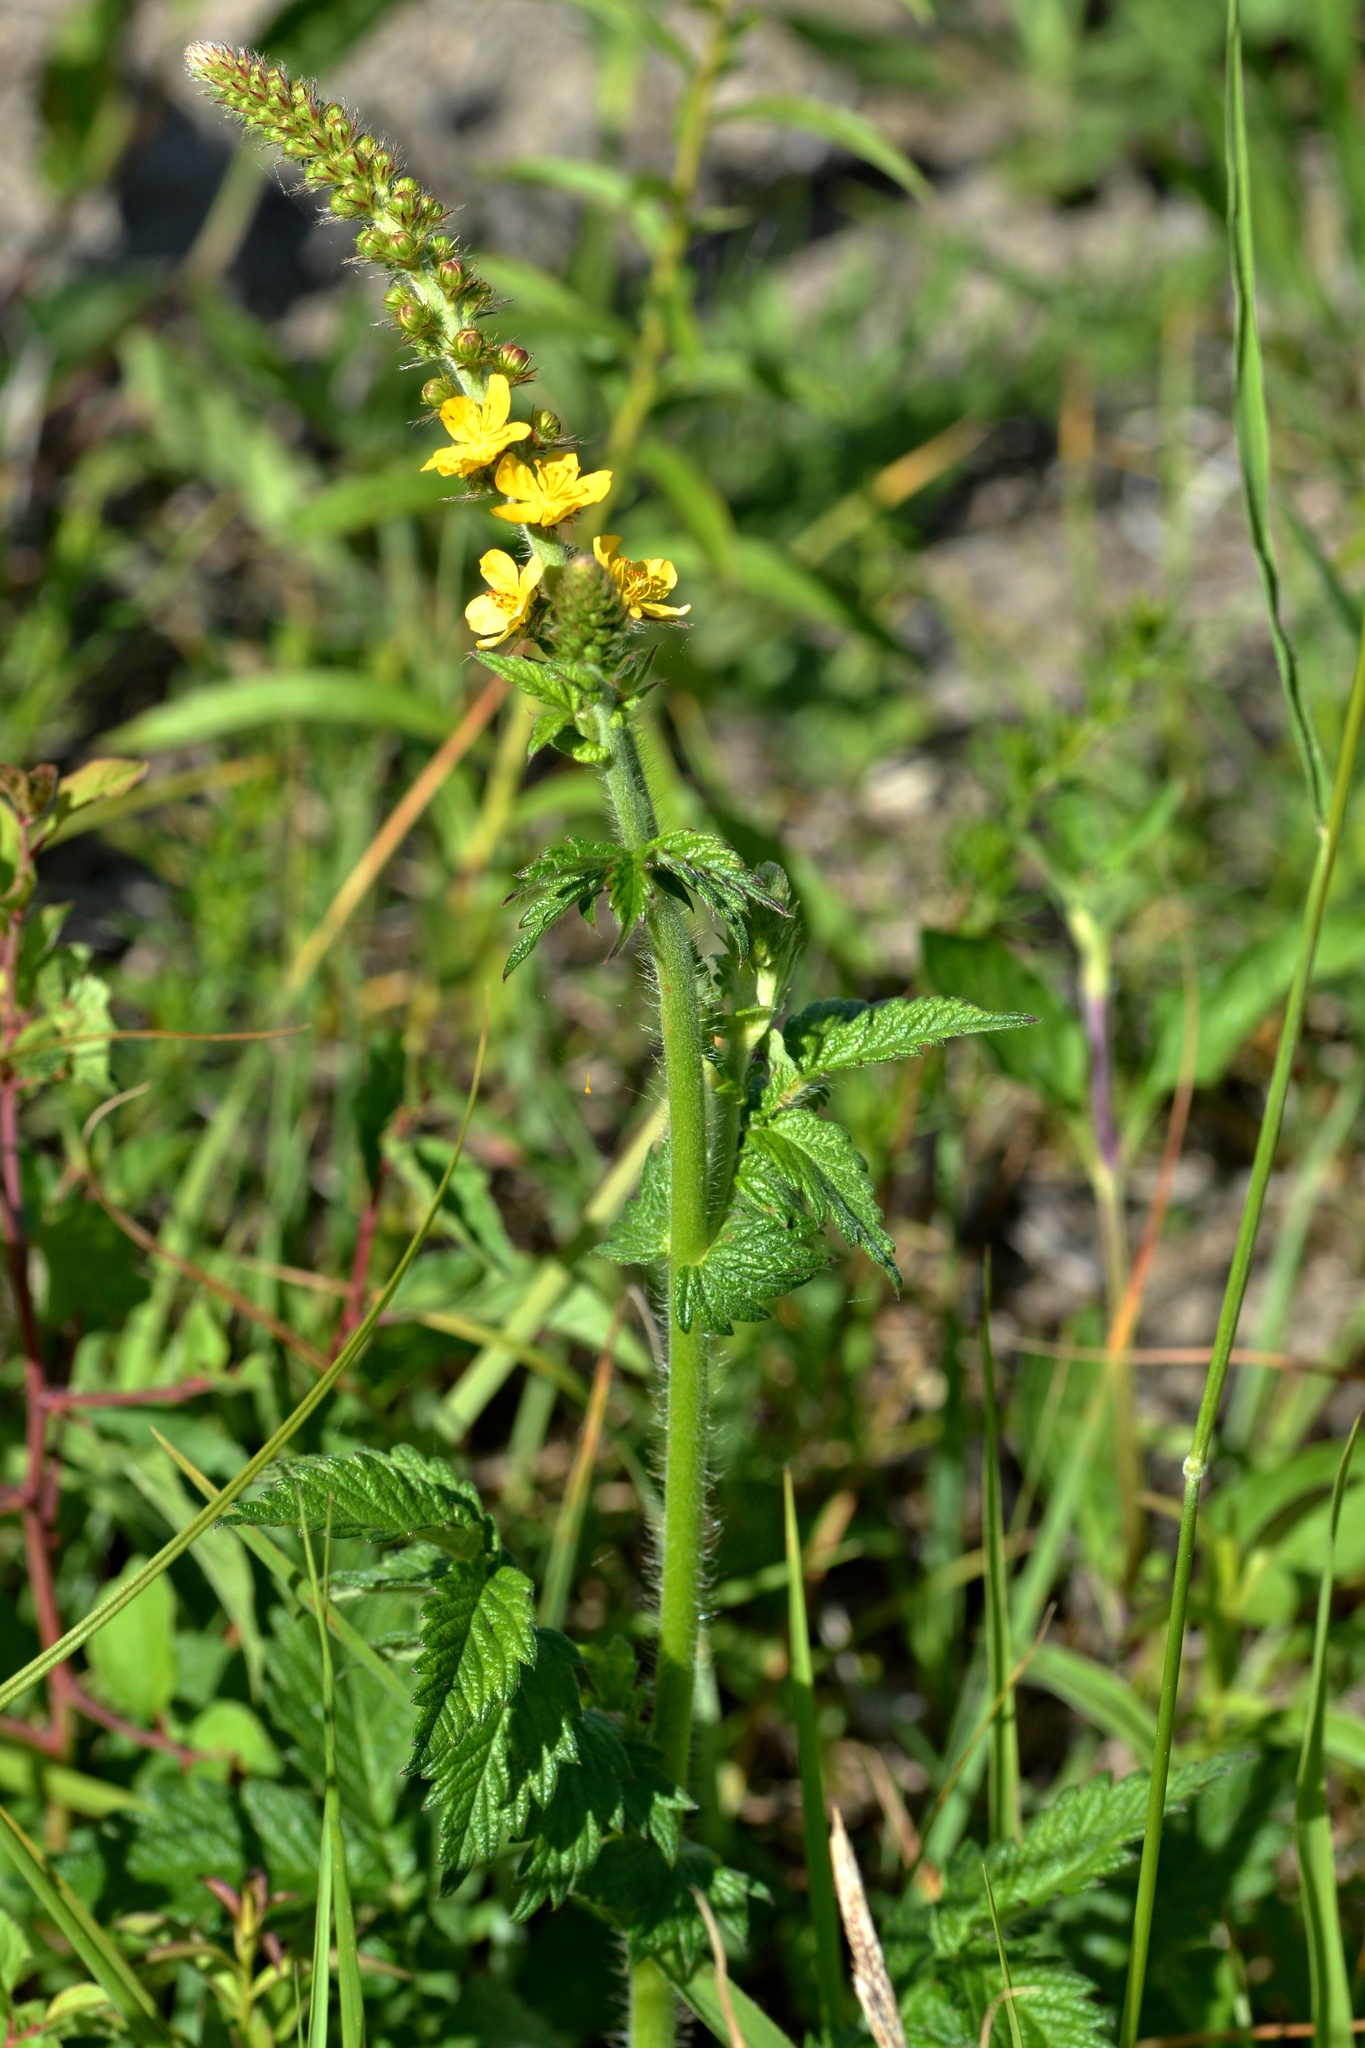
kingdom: Plantae
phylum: Tracheophyta
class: Magnoliopsida
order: Rosales
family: Rosaceae
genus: Agrimonia
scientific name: Agrimonia eupatoria
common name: Agrimony
